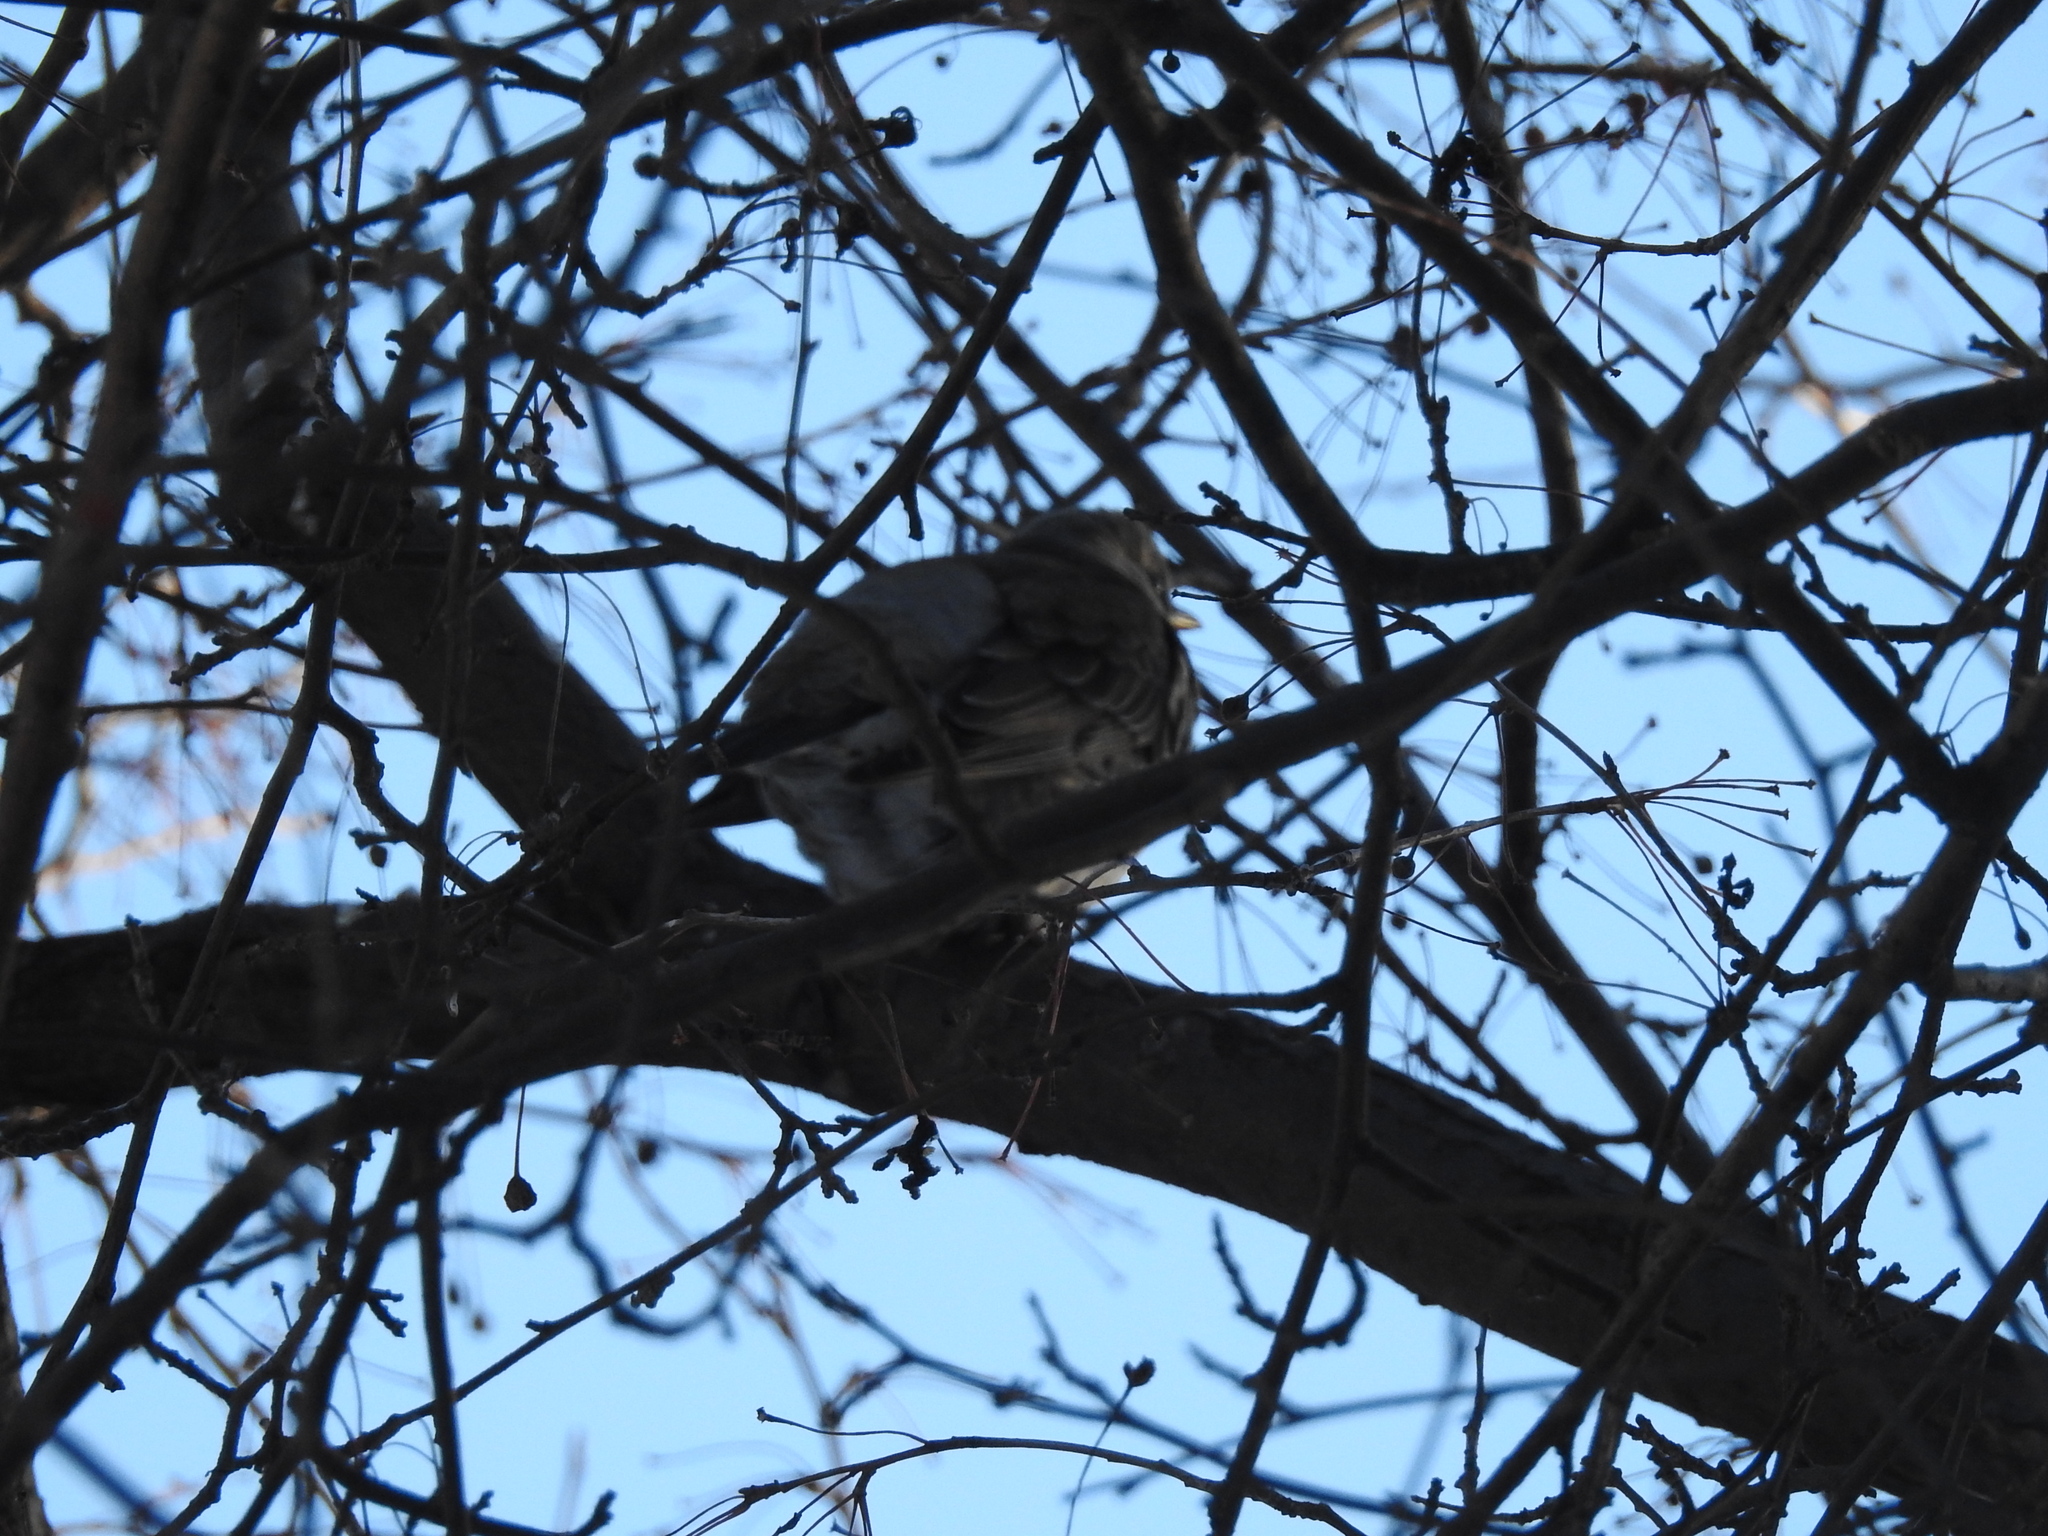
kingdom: Animalia
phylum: Chordata
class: Aves
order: Passeriformes
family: Turdidae
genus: Turdus
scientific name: Turdus pilaris
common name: Fieldfare
